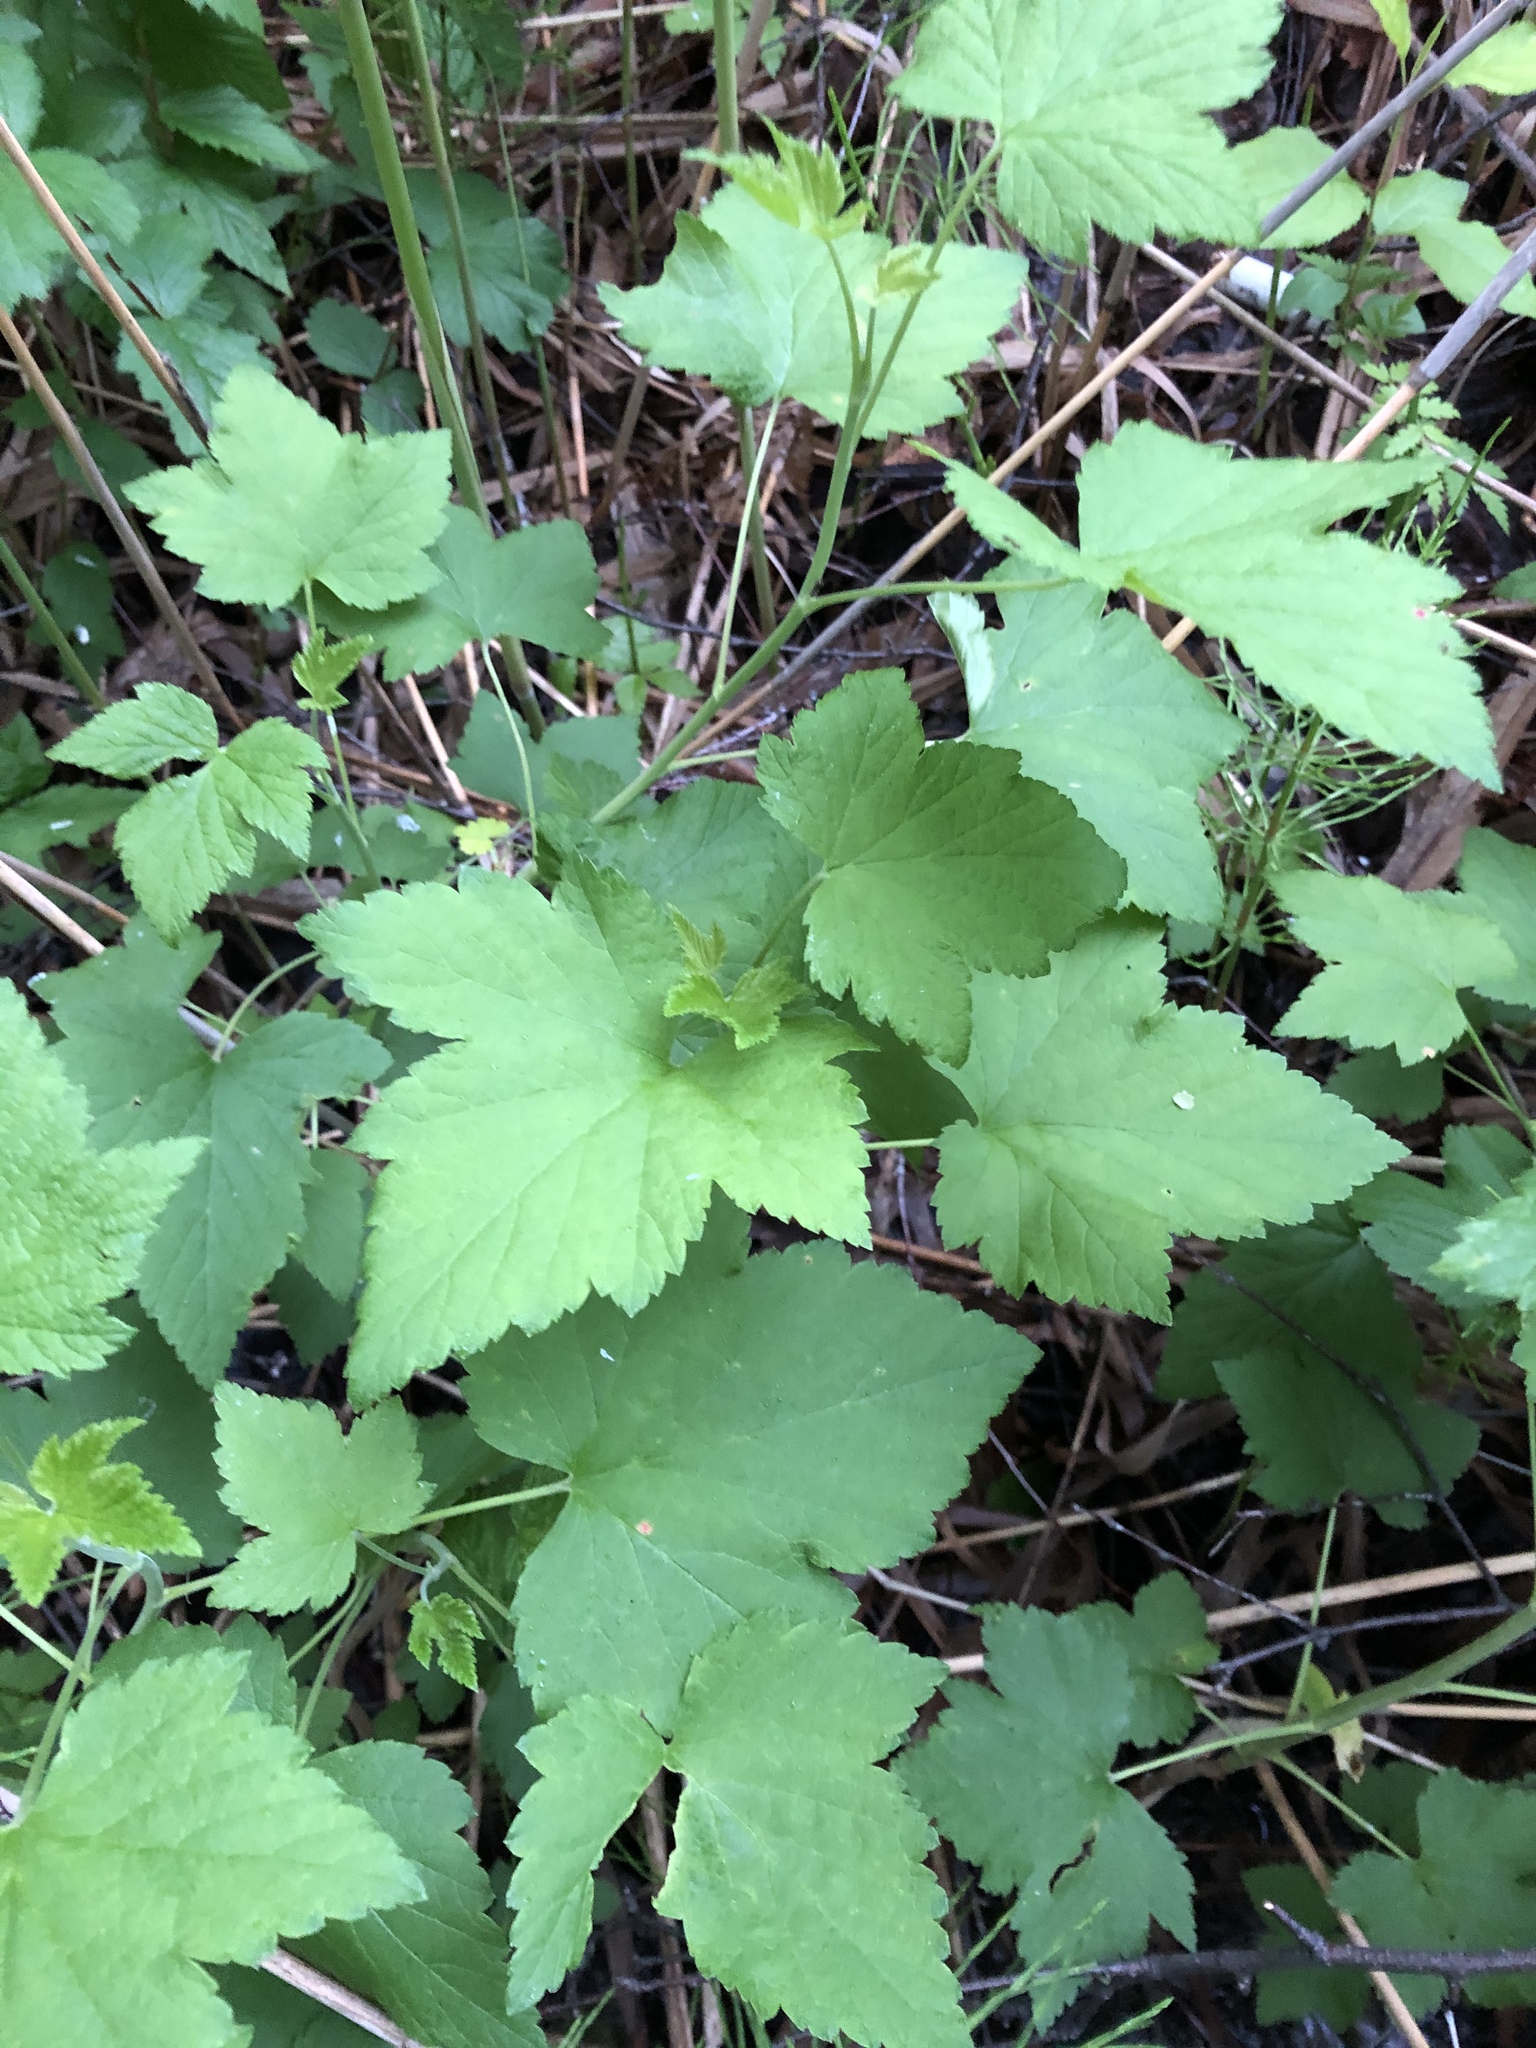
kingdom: Plantae
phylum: Tracheophyta
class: Magnoliopsida
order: Saxifragales
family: Grossulariaceae
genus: Ribes
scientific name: Ribes nigrum
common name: Black currant
